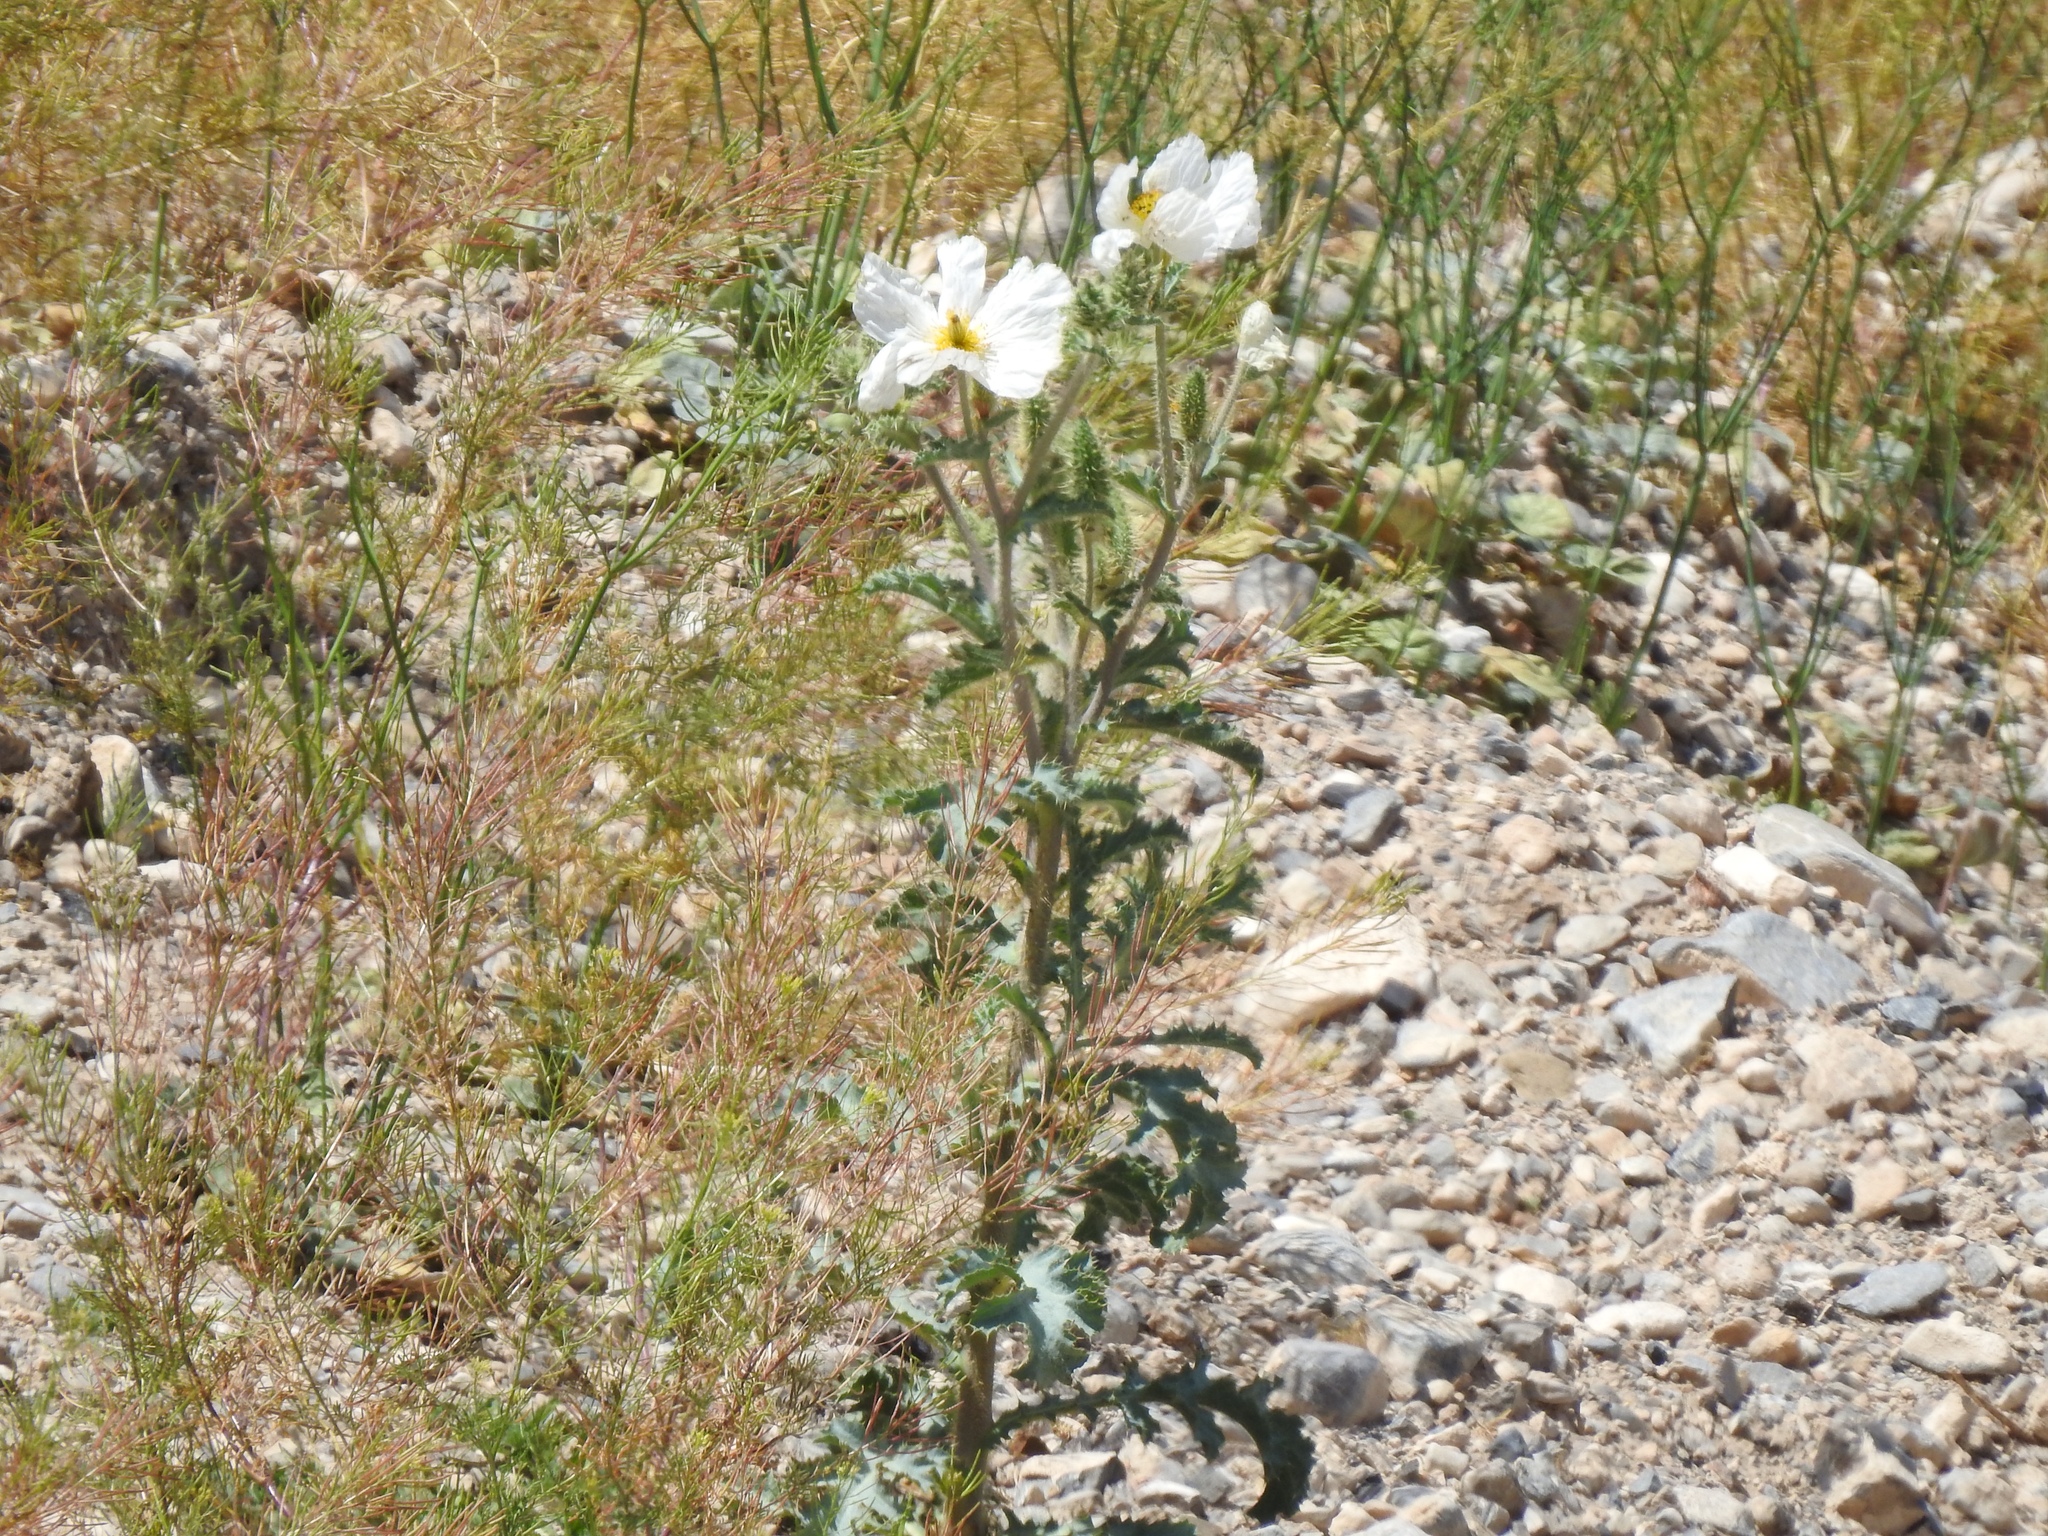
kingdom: Plantae
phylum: Tracheophyta
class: Magnoliopsida
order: Ranunculales
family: Papaveraceae
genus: Argemone
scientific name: Argemone munita
